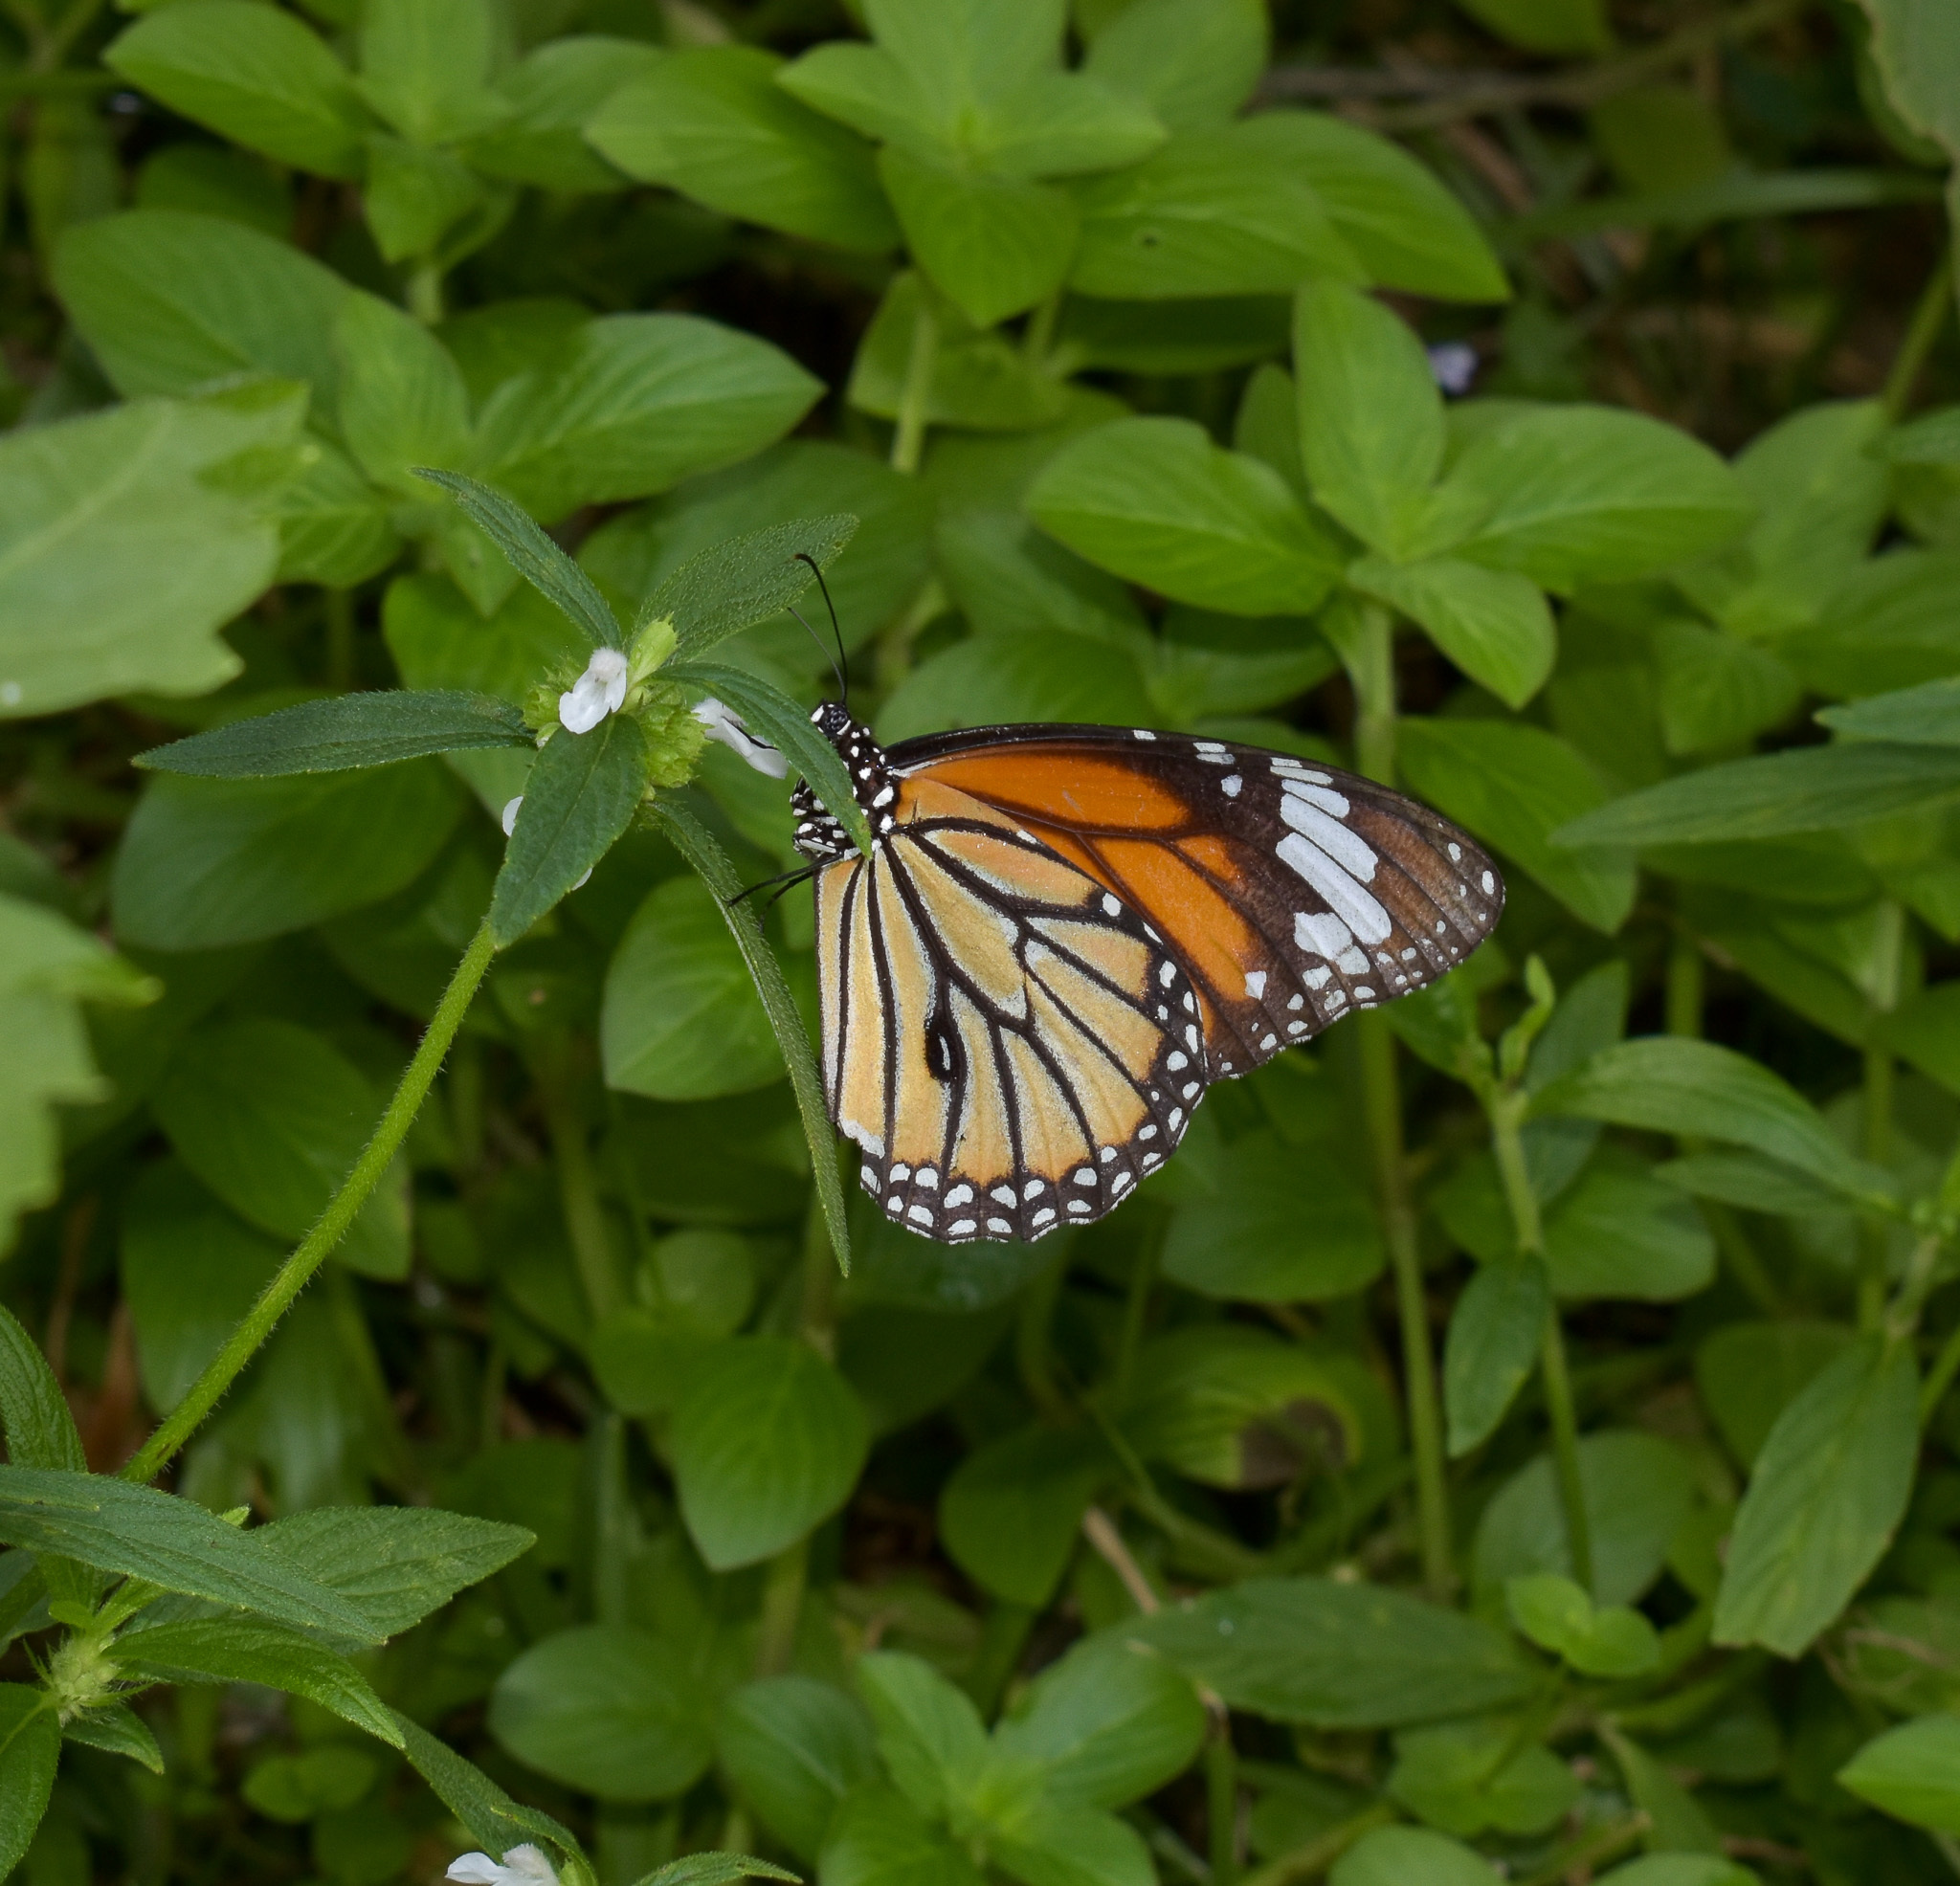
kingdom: Animalia
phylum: Arthropoda
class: Insecta
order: Lepidoptera
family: Nymphalidae
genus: Danaus
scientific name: Danaus genutia
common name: Common tiger butterfly
